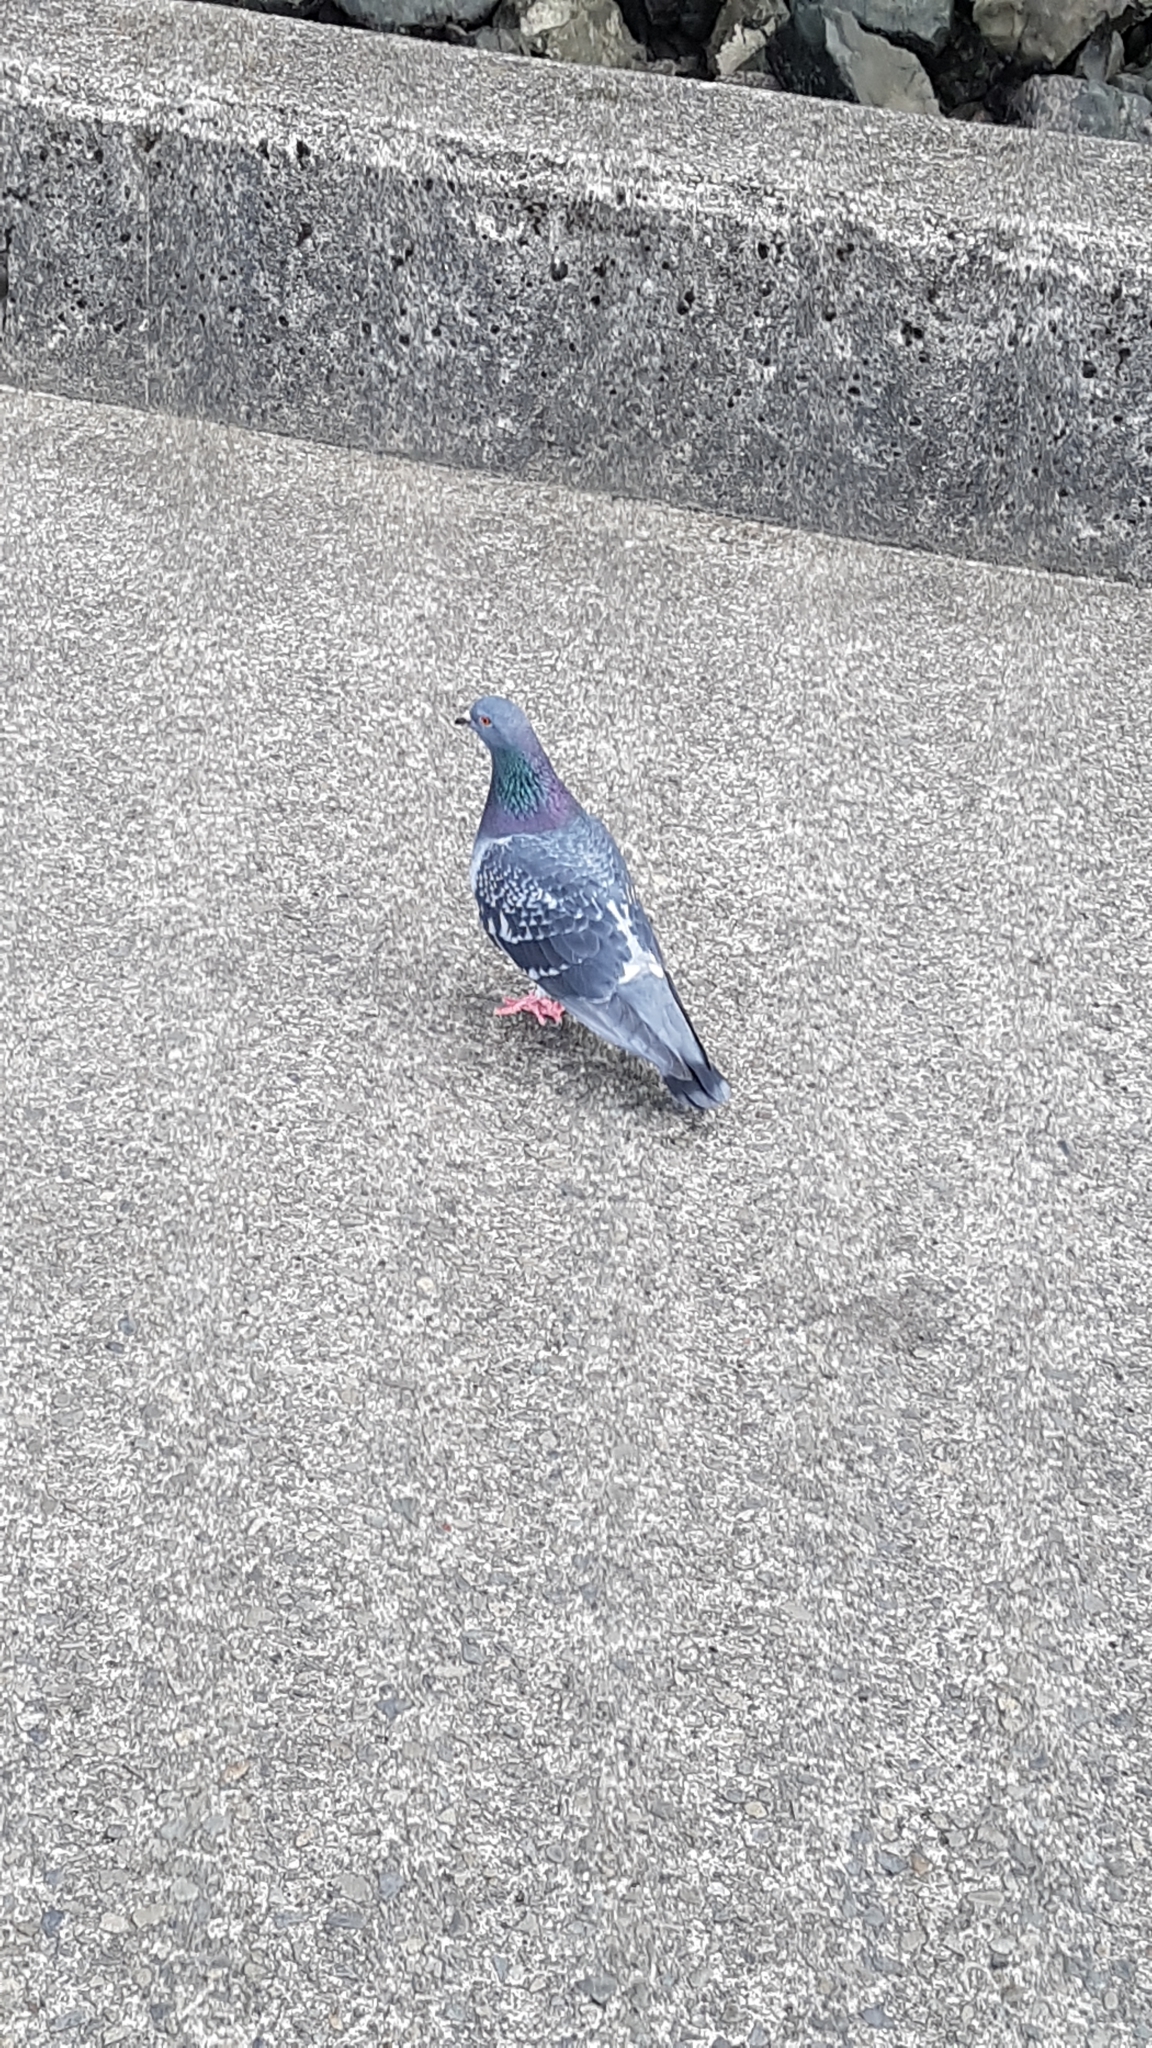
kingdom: Animalia
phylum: Chordata
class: Aves
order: Columbiformes
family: Columbidae
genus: Columba
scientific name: Columba livia
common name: Rock pigeon
